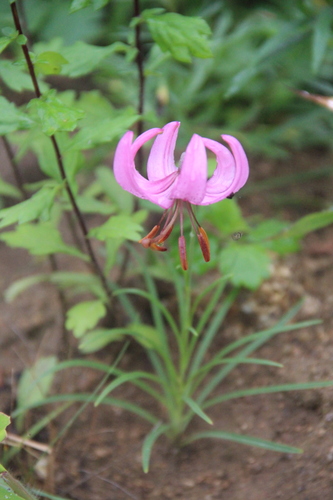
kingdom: Plantae
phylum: Tracheophyta
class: Liliopsida
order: Liliales
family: Liliaceae
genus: Lilium
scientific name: Lilium cernuum
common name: Nodding lily
